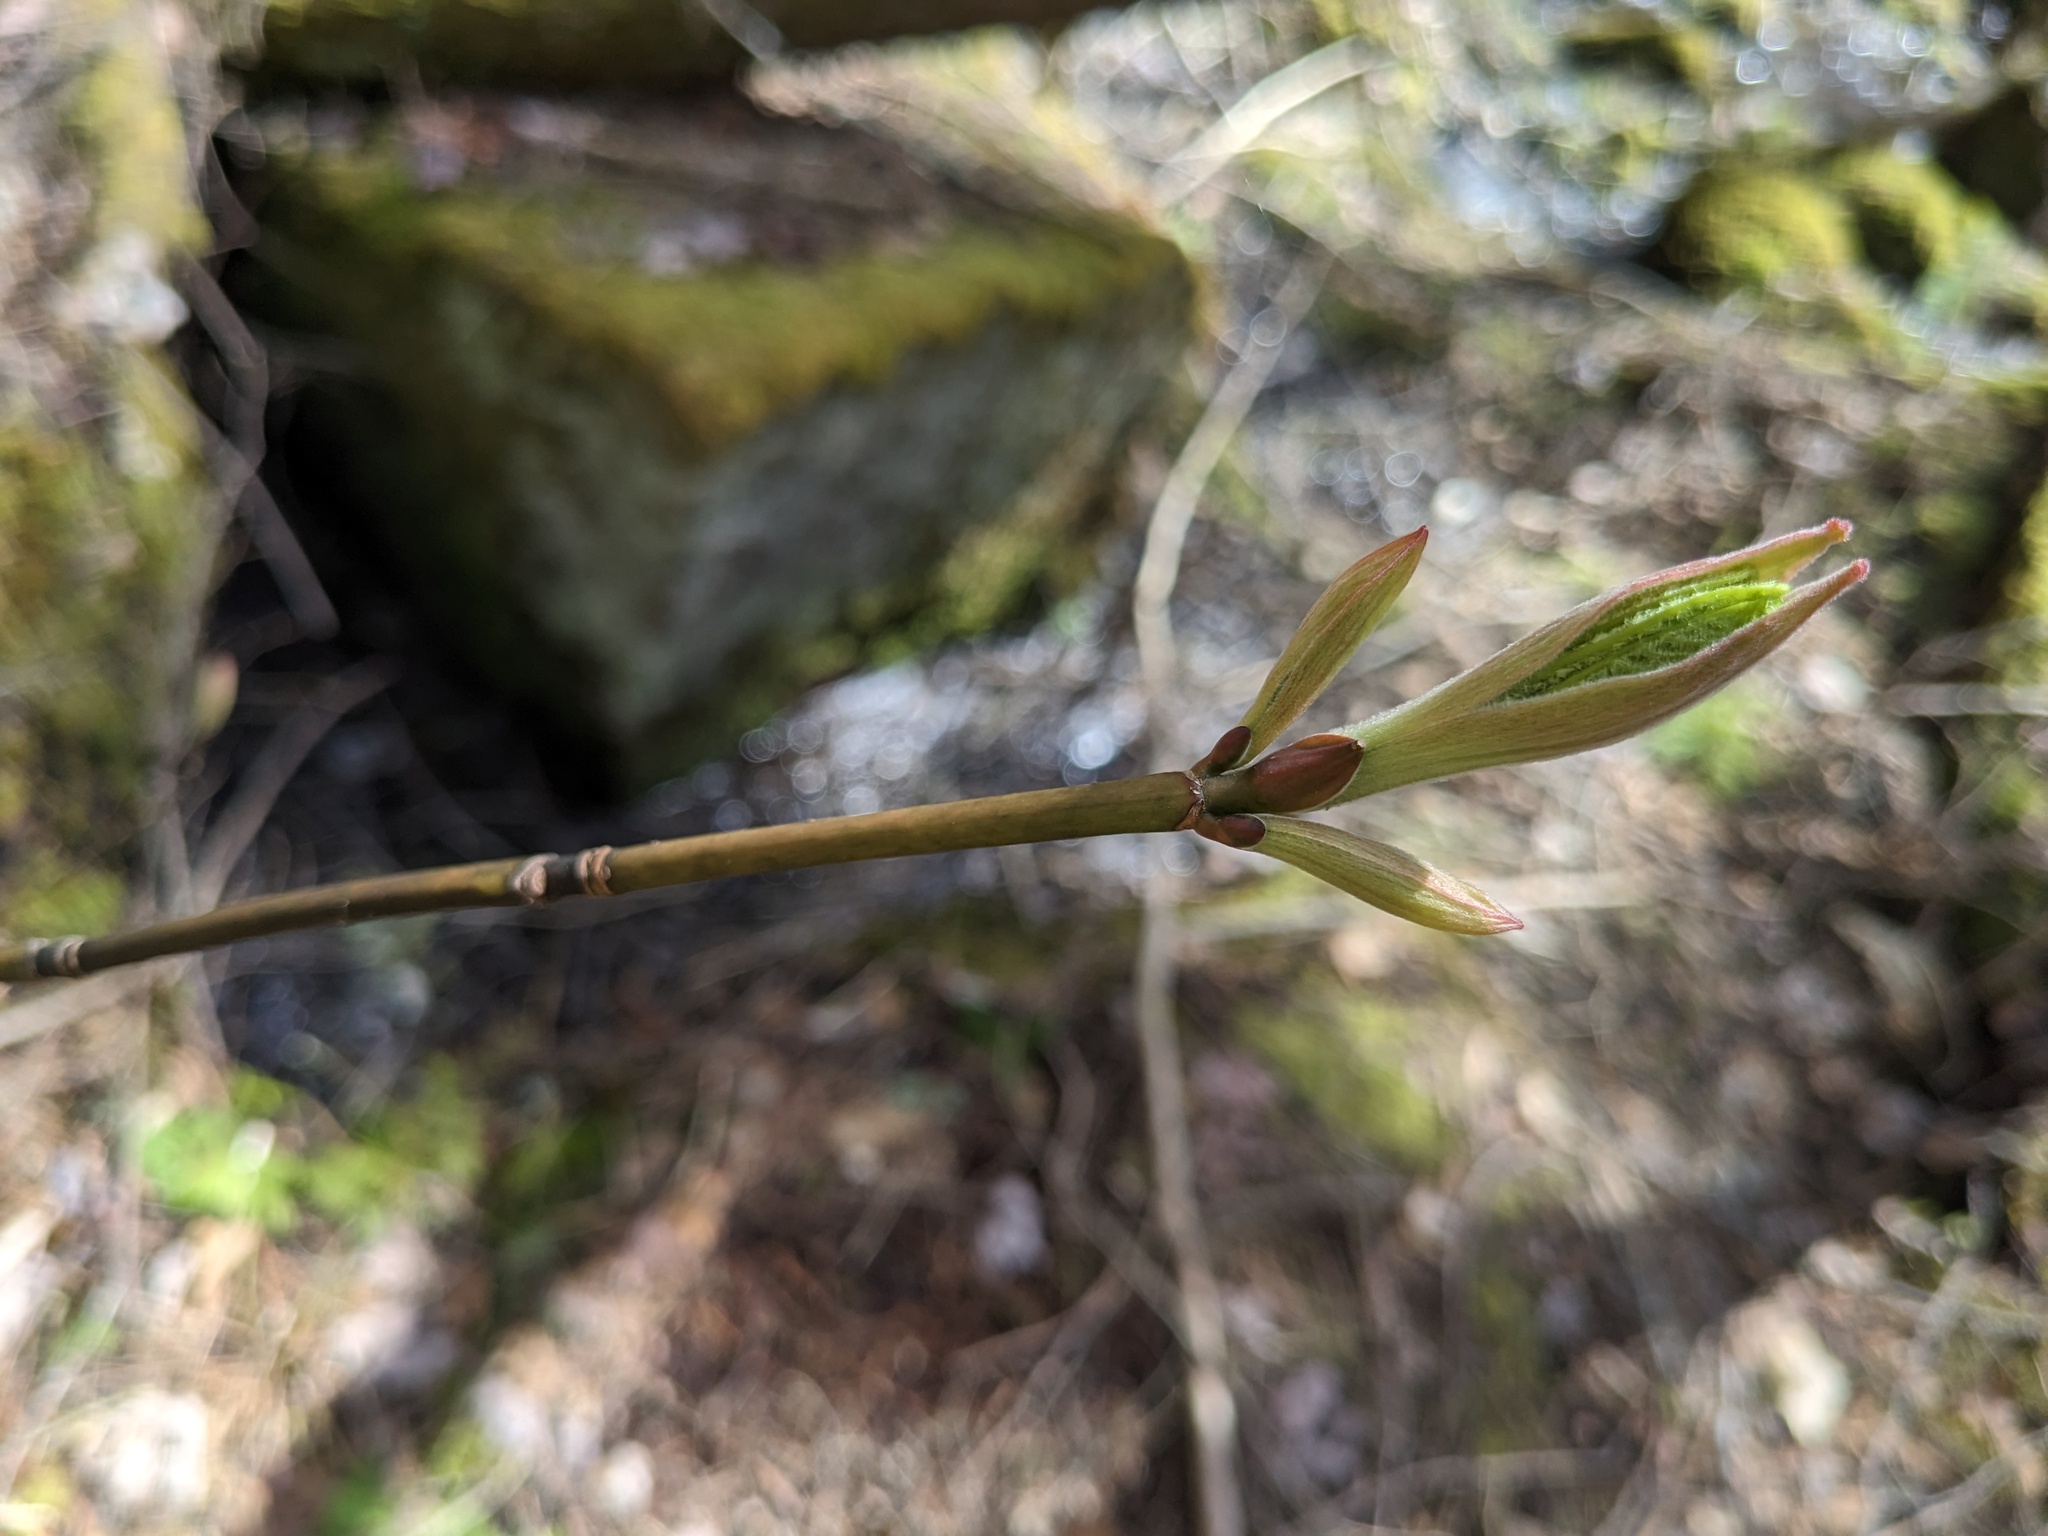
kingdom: Plantae
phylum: Tracheophyta
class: Magnoliopsida
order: Sapindales
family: Sapindaceae
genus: Acer
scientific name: Acer pensylvanicum
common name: Moosewood
